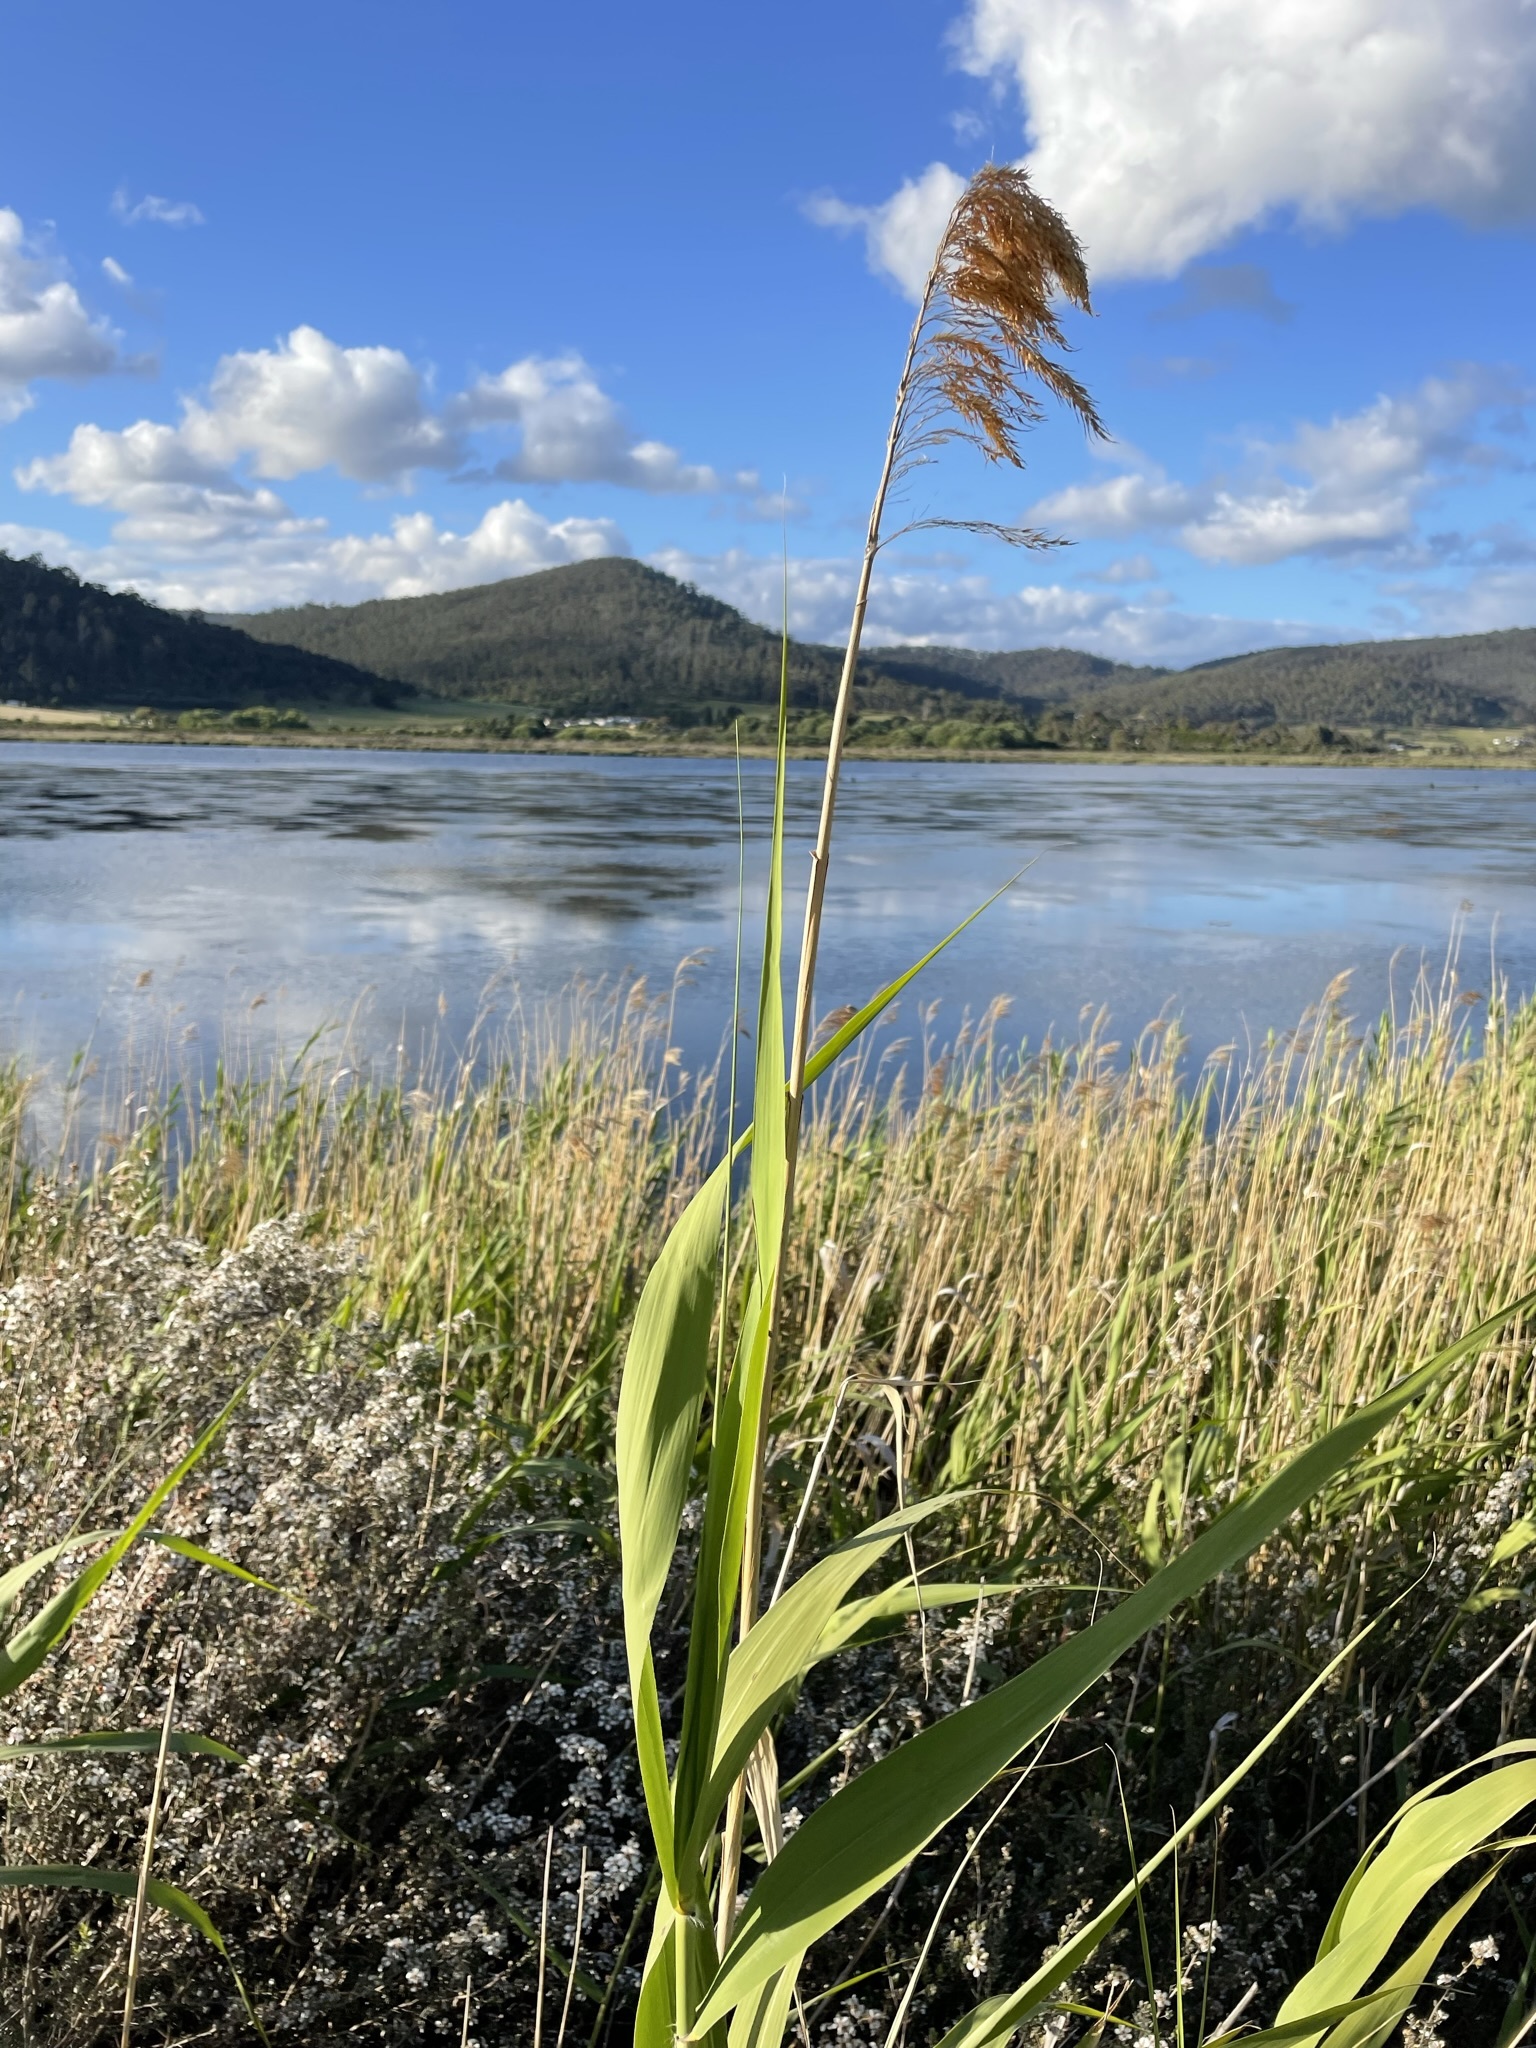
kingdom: Plantae
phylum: Tracheophyta
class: Liliopsida
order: Poales
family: Poaceae
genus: Phragmites
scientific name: Phragmites australis
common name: Common reed
